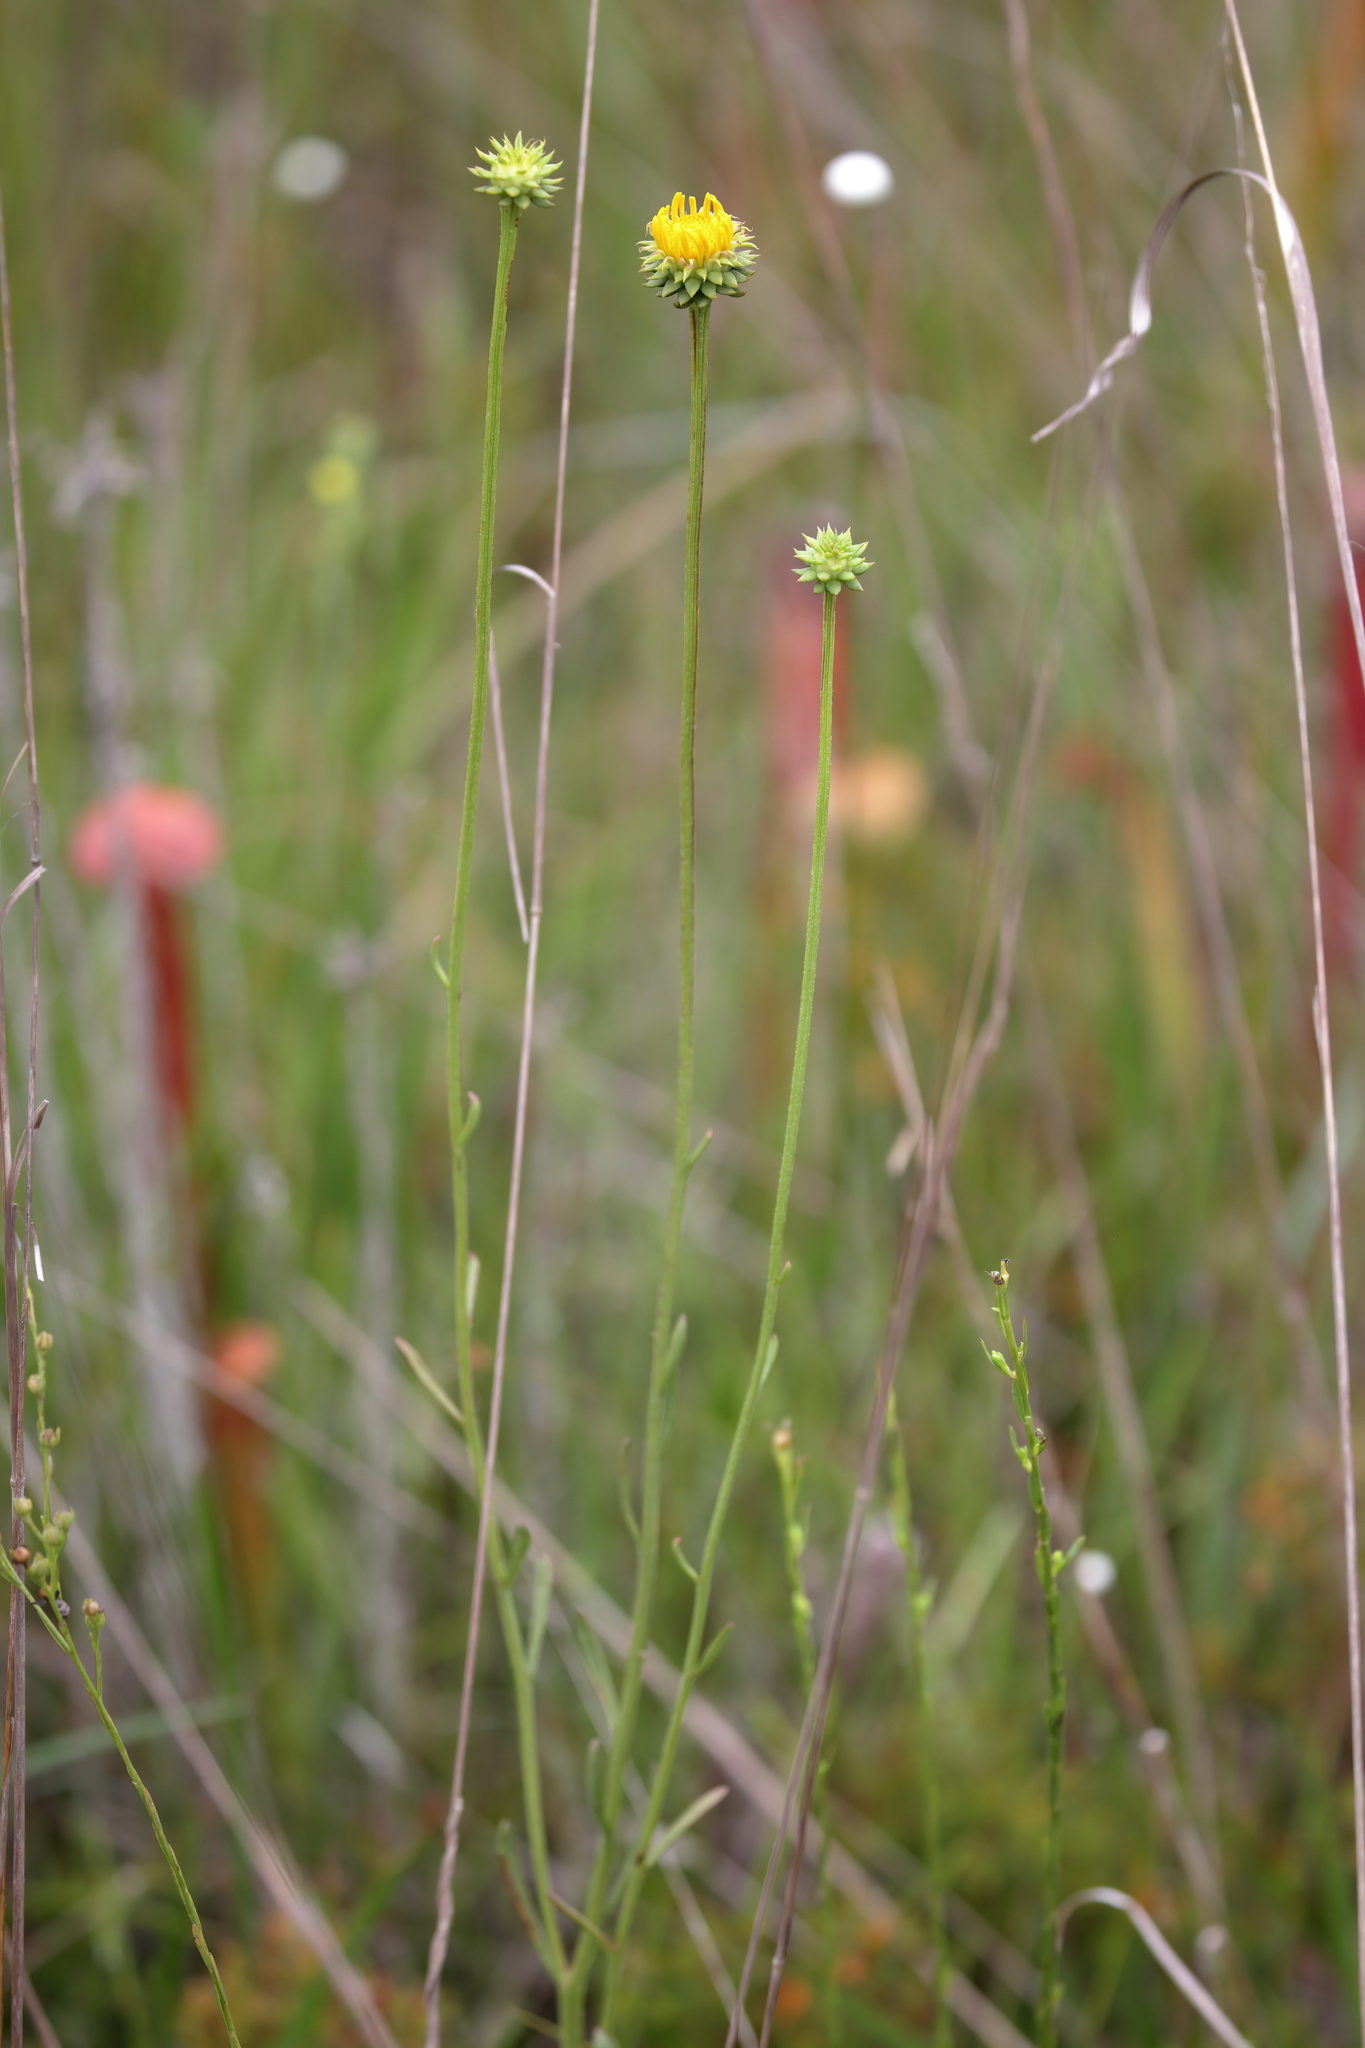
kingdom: Plantae
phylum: Tracheophyta
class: Magnoliopsida
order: Asterales
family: Asteraceae
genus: Balduina
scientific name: Balduina uniflora
